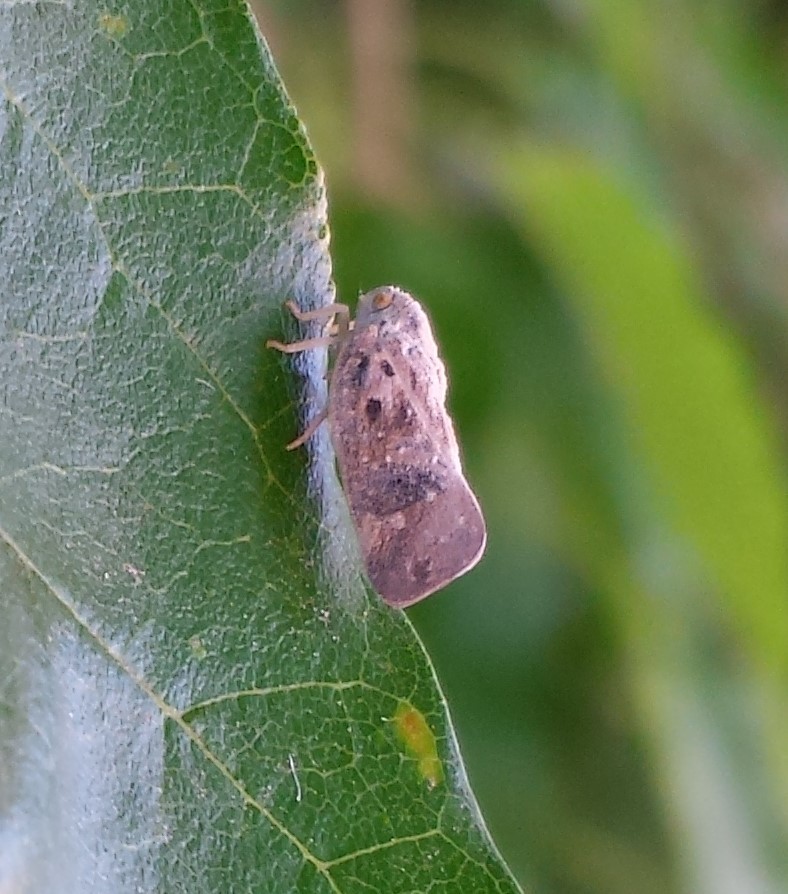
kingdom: Animalia
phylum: Arthropoda
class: Insecta
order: Hemiptera
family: Flatidae
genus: Metcalfa
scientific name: Metcalfa pruinosa
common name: Citrus flatid planthopper
